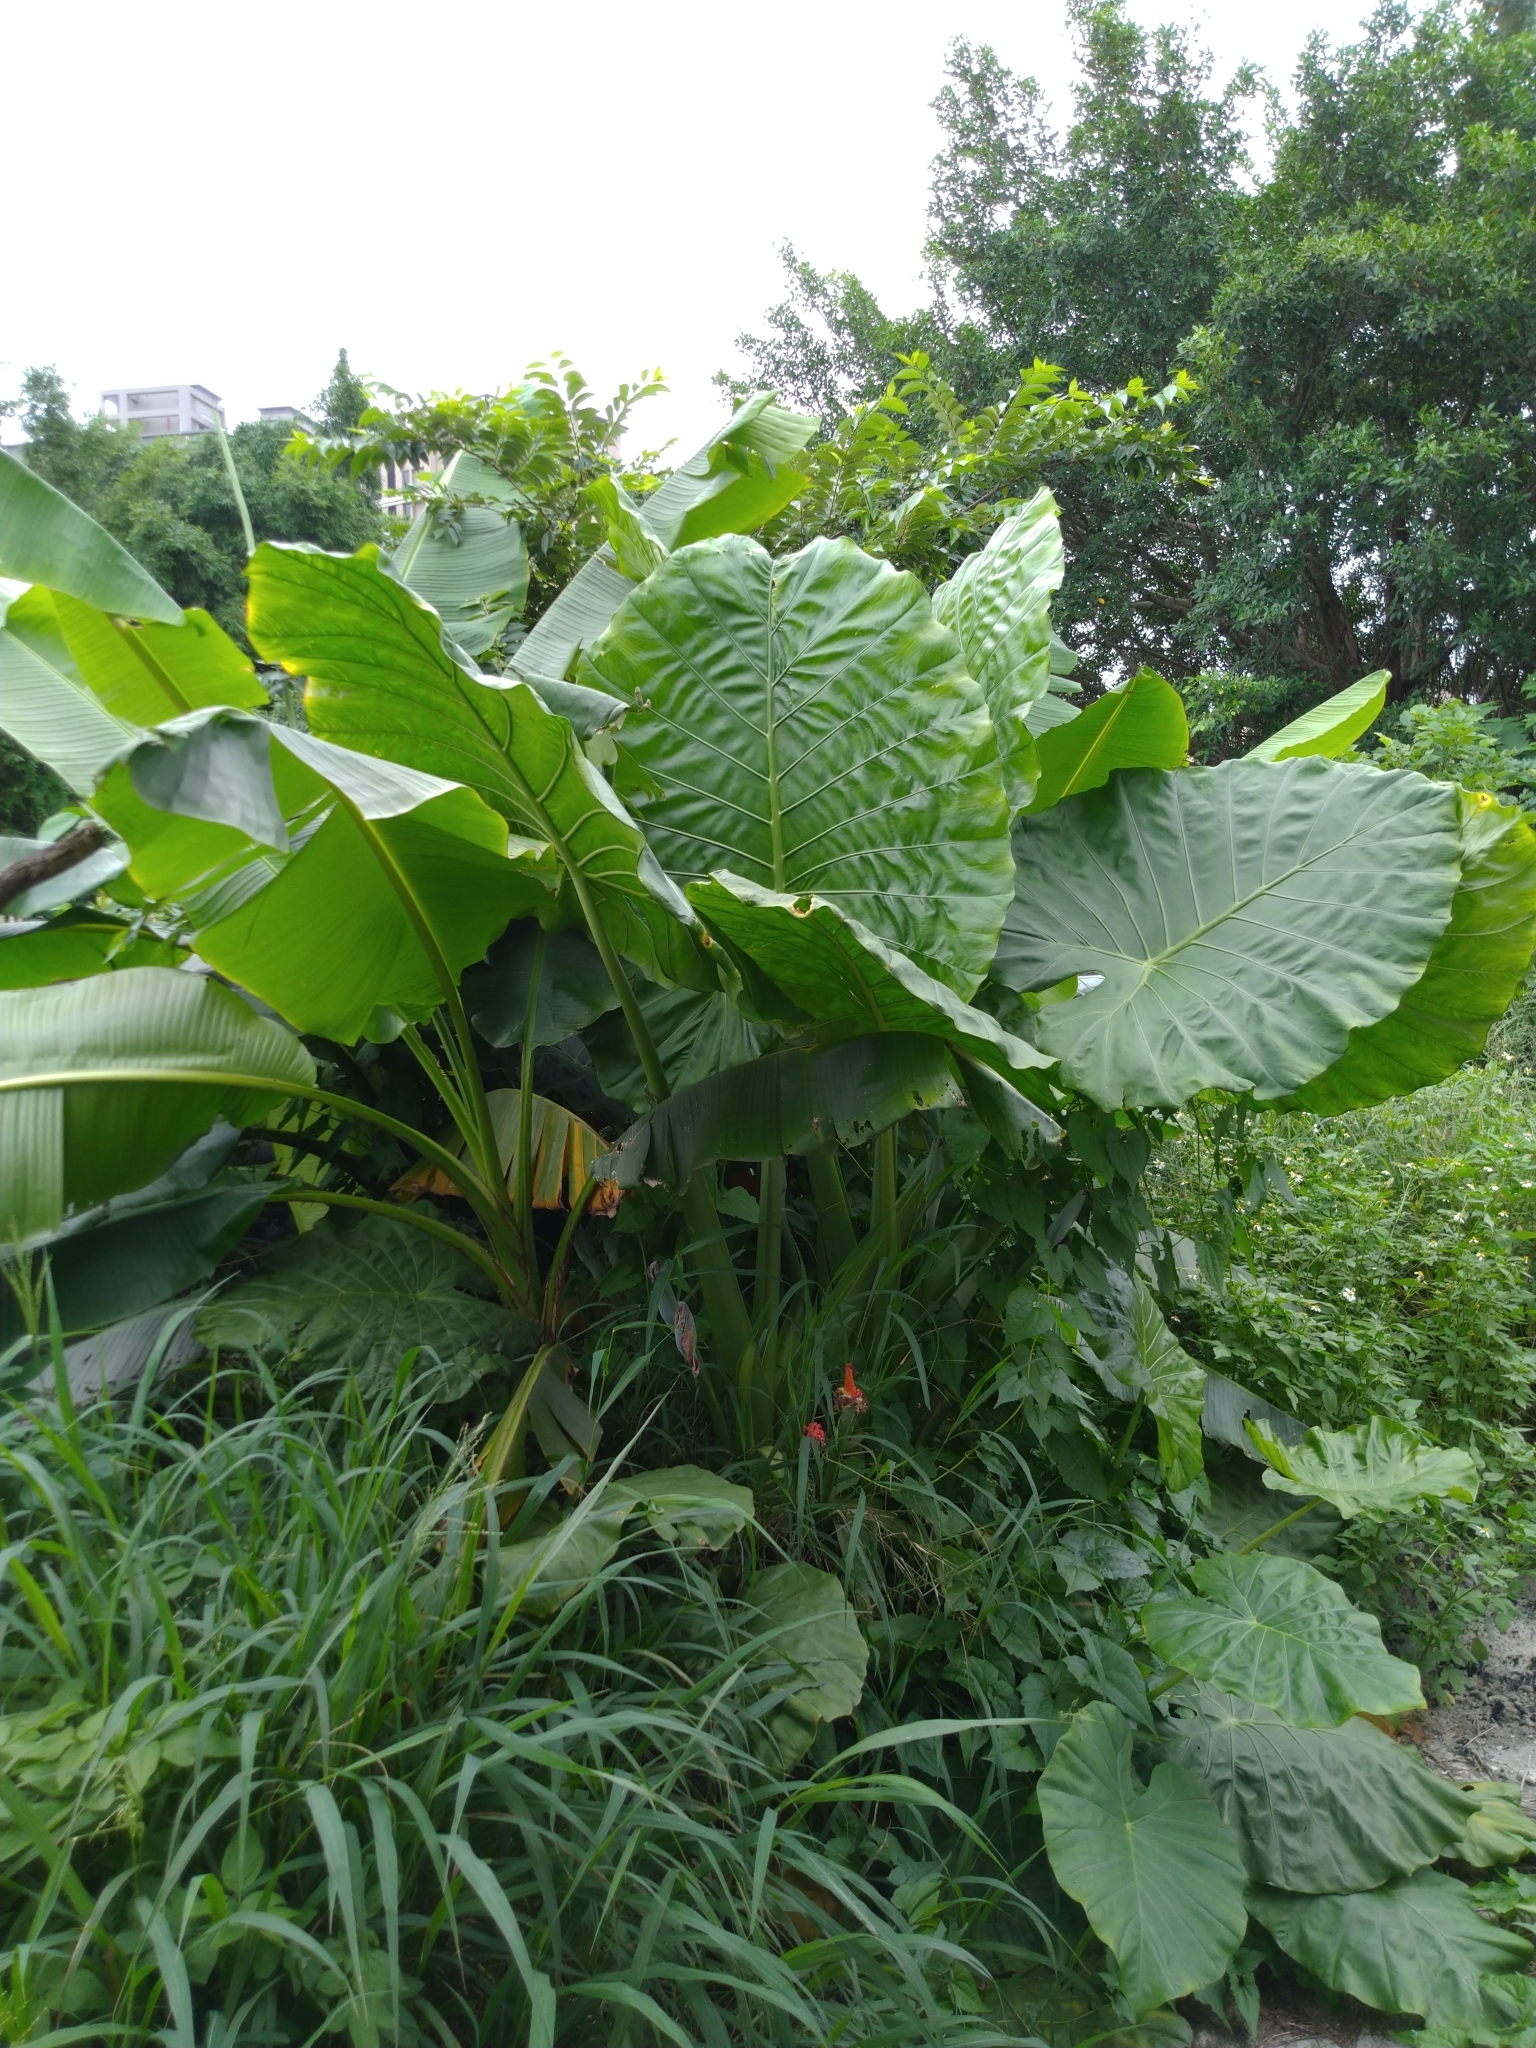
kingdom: Plantae
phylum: Tracheophyta
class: Liliopsida
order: Alismatales
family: Araceae
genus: Alocasia
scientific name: Alocasia odora
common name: Asian taro
